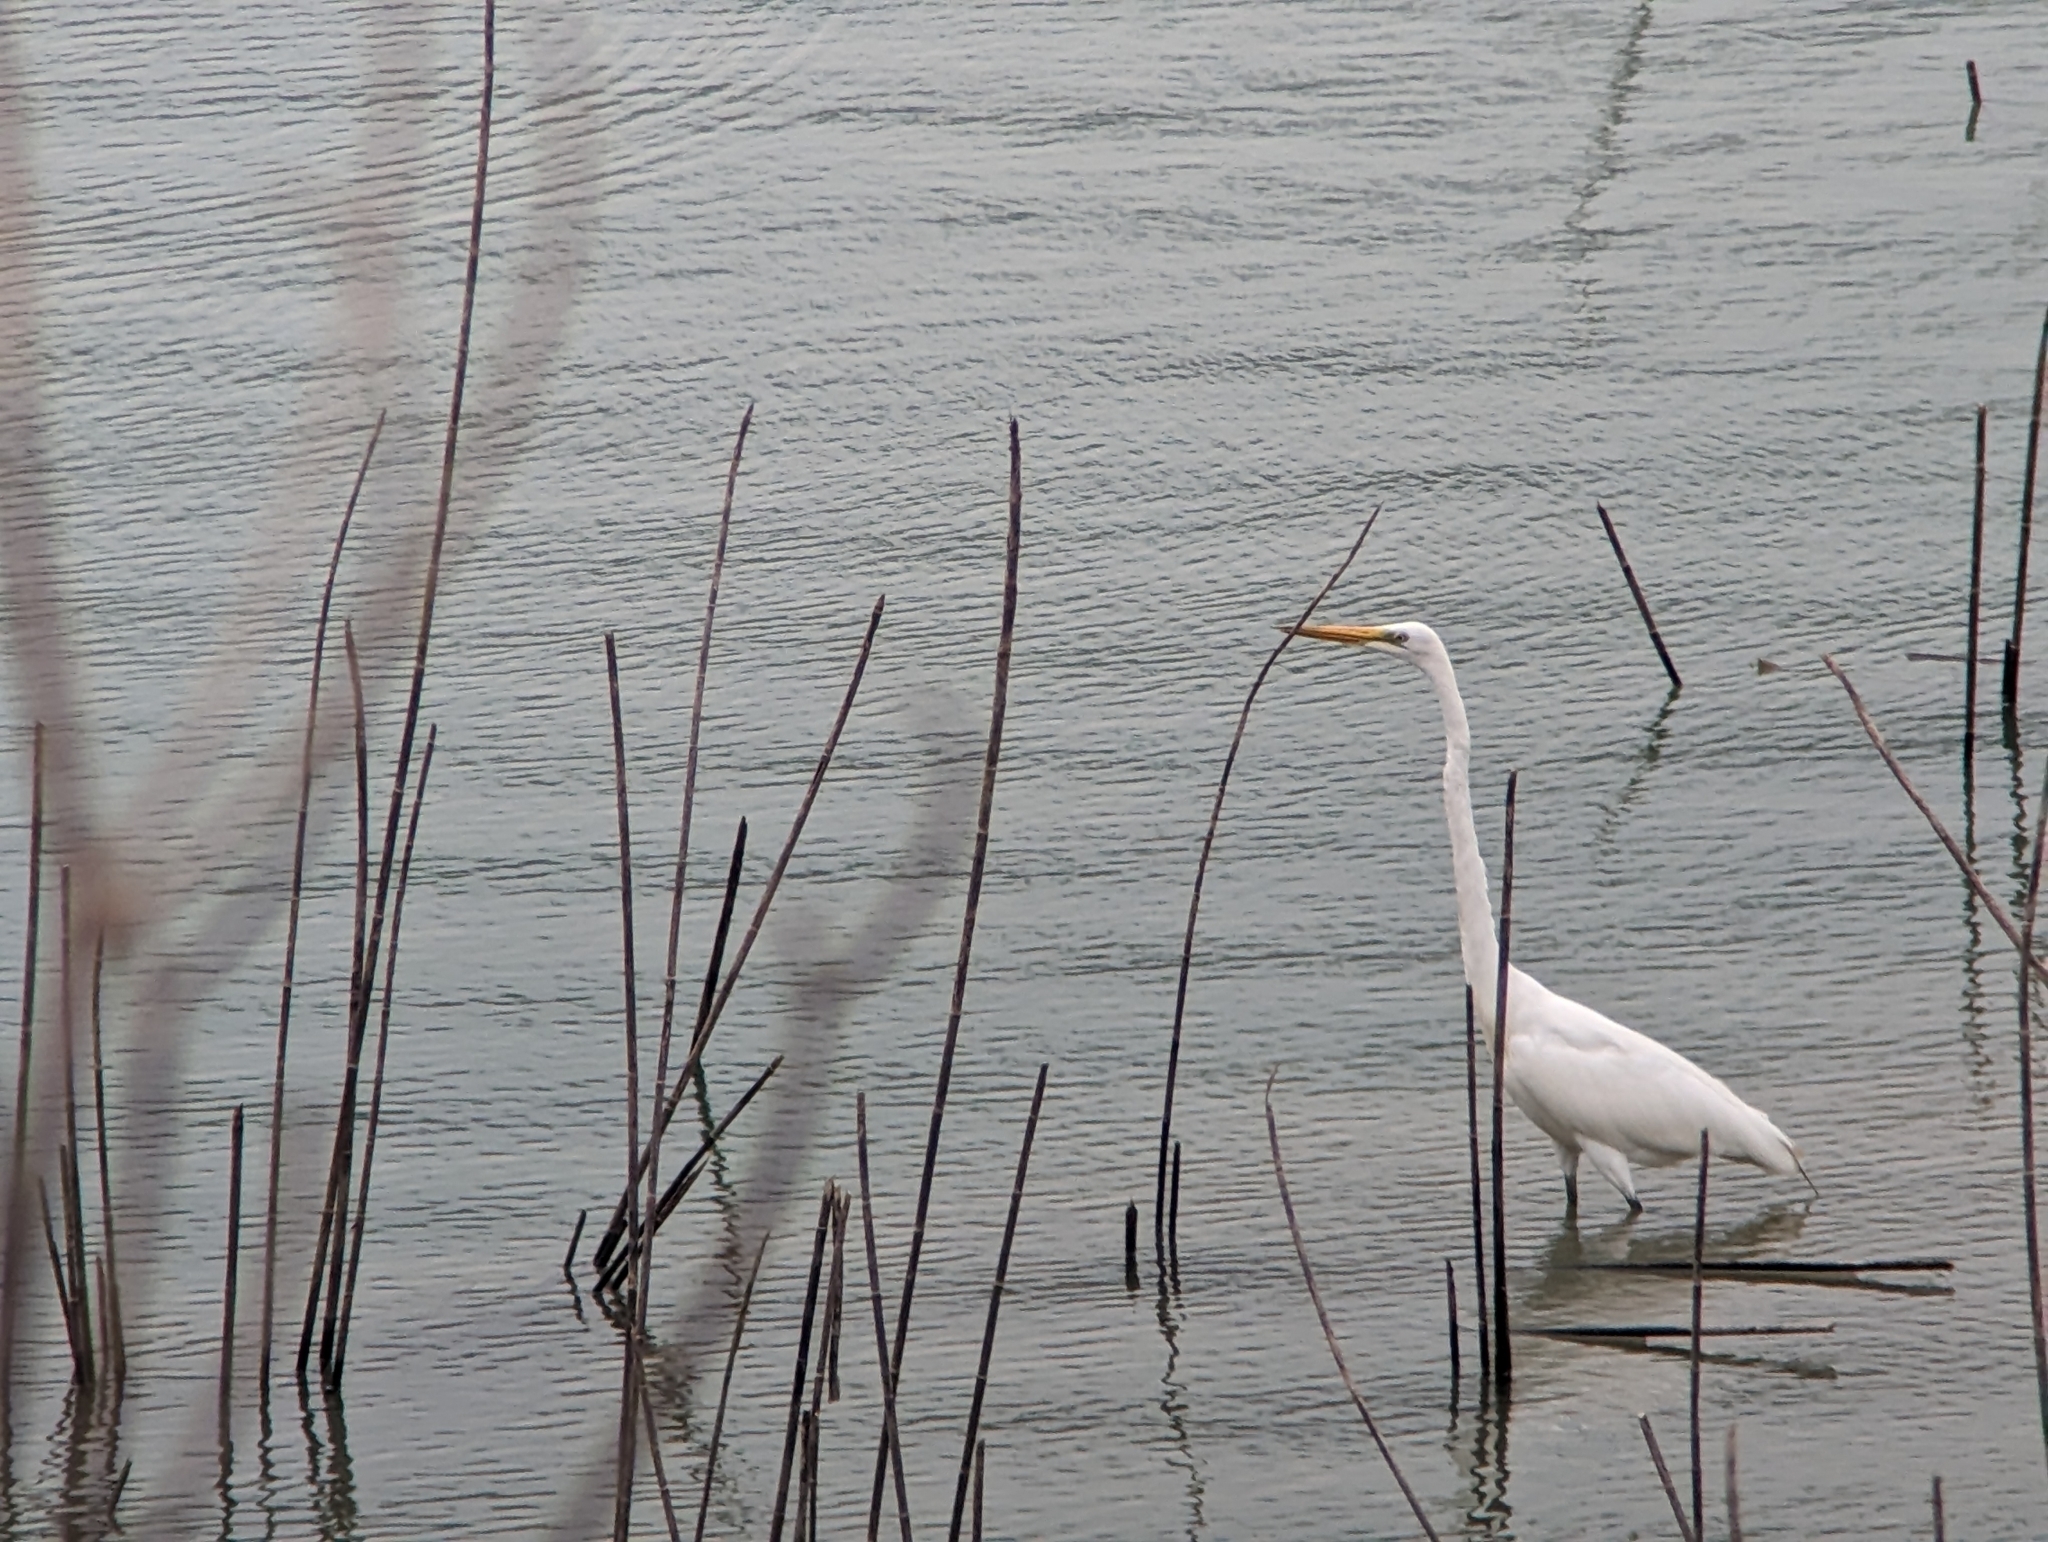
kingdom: Animalia
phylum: Chordata
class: Aves
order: Pelecaniformes
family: Ardeidae
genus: Ardea
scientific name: Ardea alba
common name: Great egret
